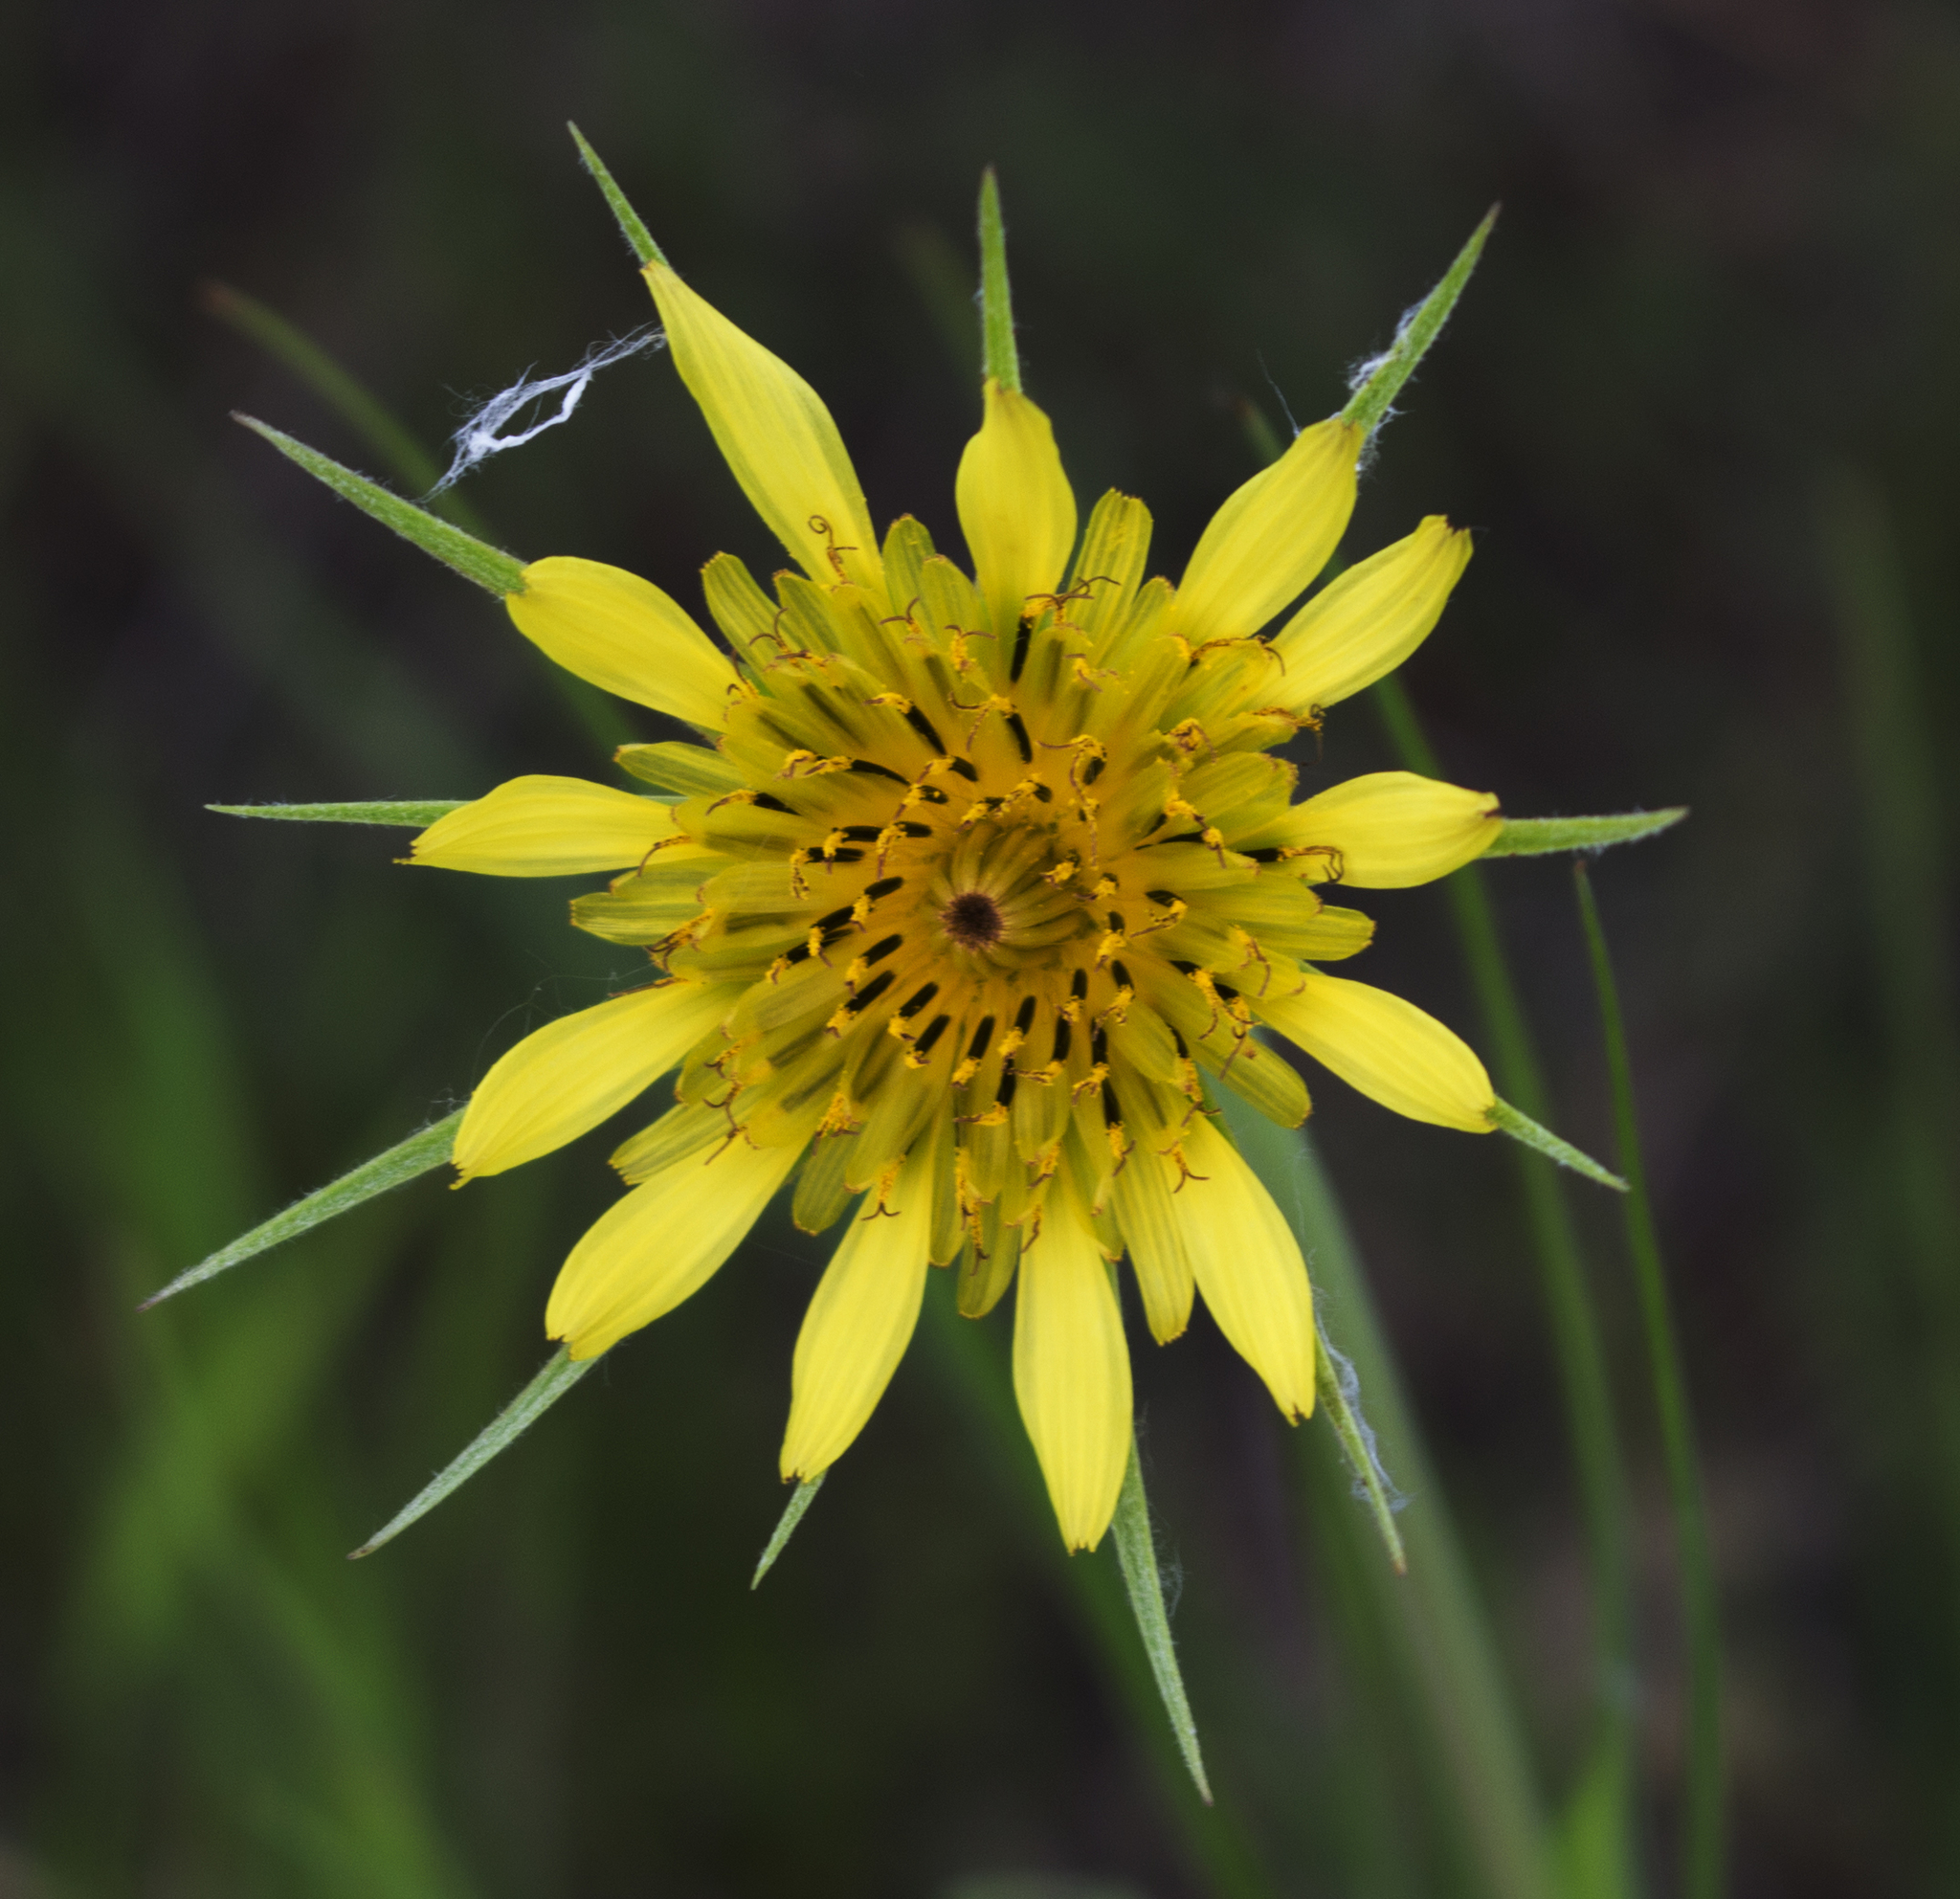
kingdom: Plantae
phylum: Tracheophyta
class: Magnoliopsida
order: Asterales
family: Asteraceae
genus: Tragopogon
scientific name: Tragopogon dubius
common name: Yellow salsify
